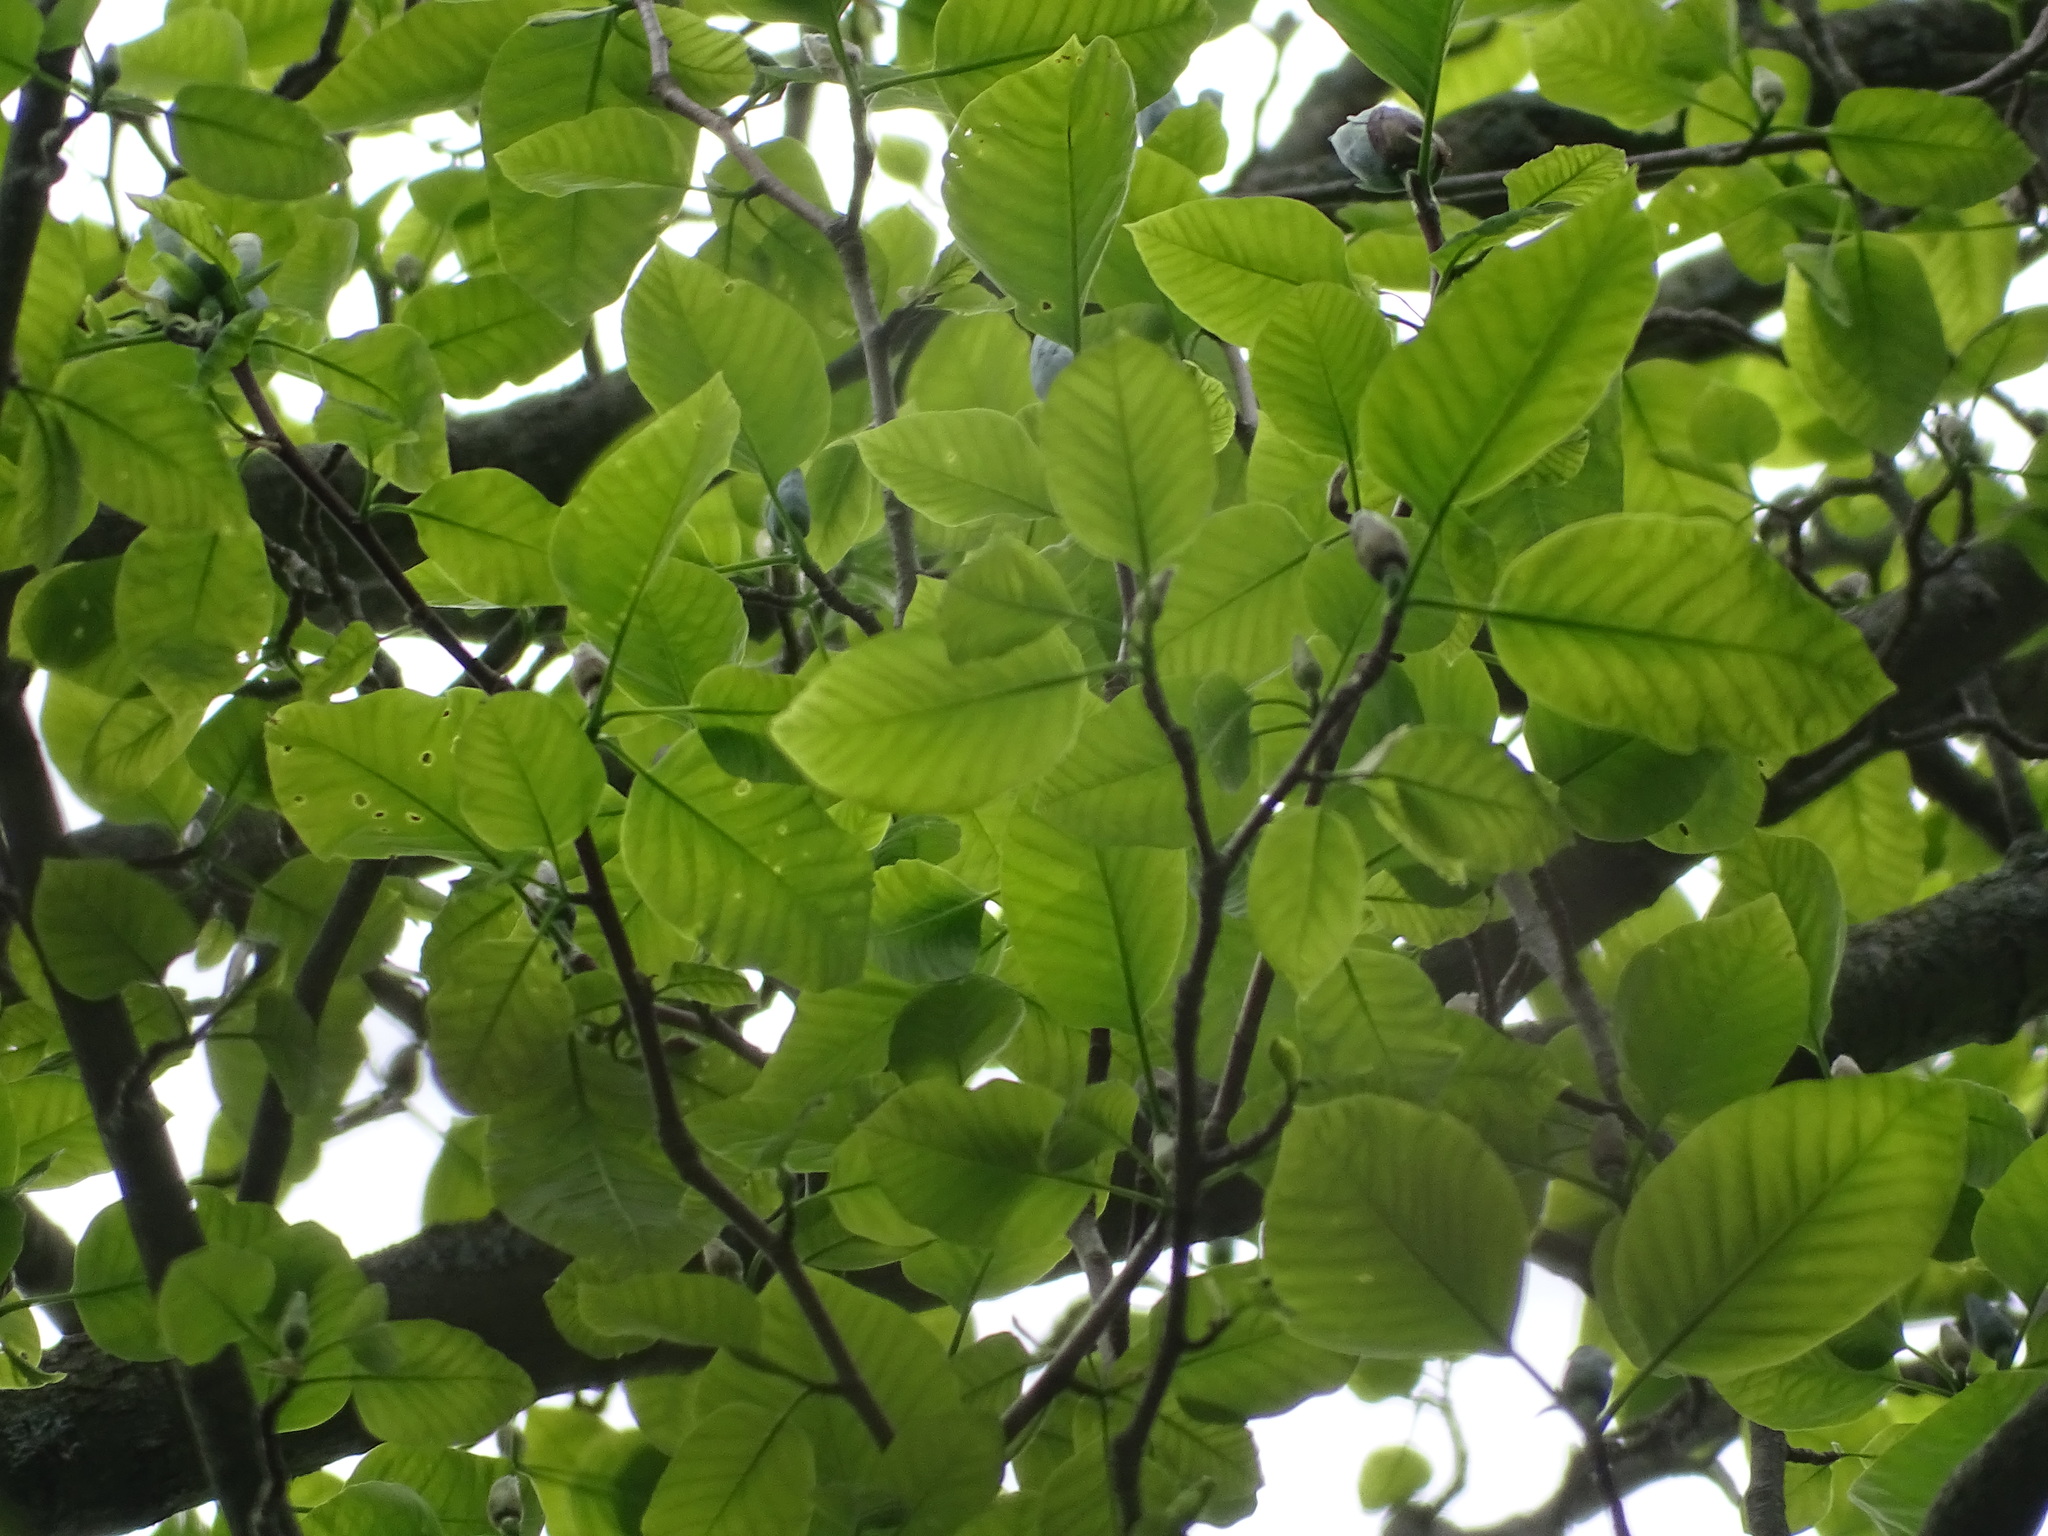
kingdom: Plantae
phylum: Tracheophyta
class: Magnoliopsida
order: Magnoliales
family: Magnoliaceae
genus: Magnolia
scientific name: Magnolia acuminata
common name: Cucumber magnolia
